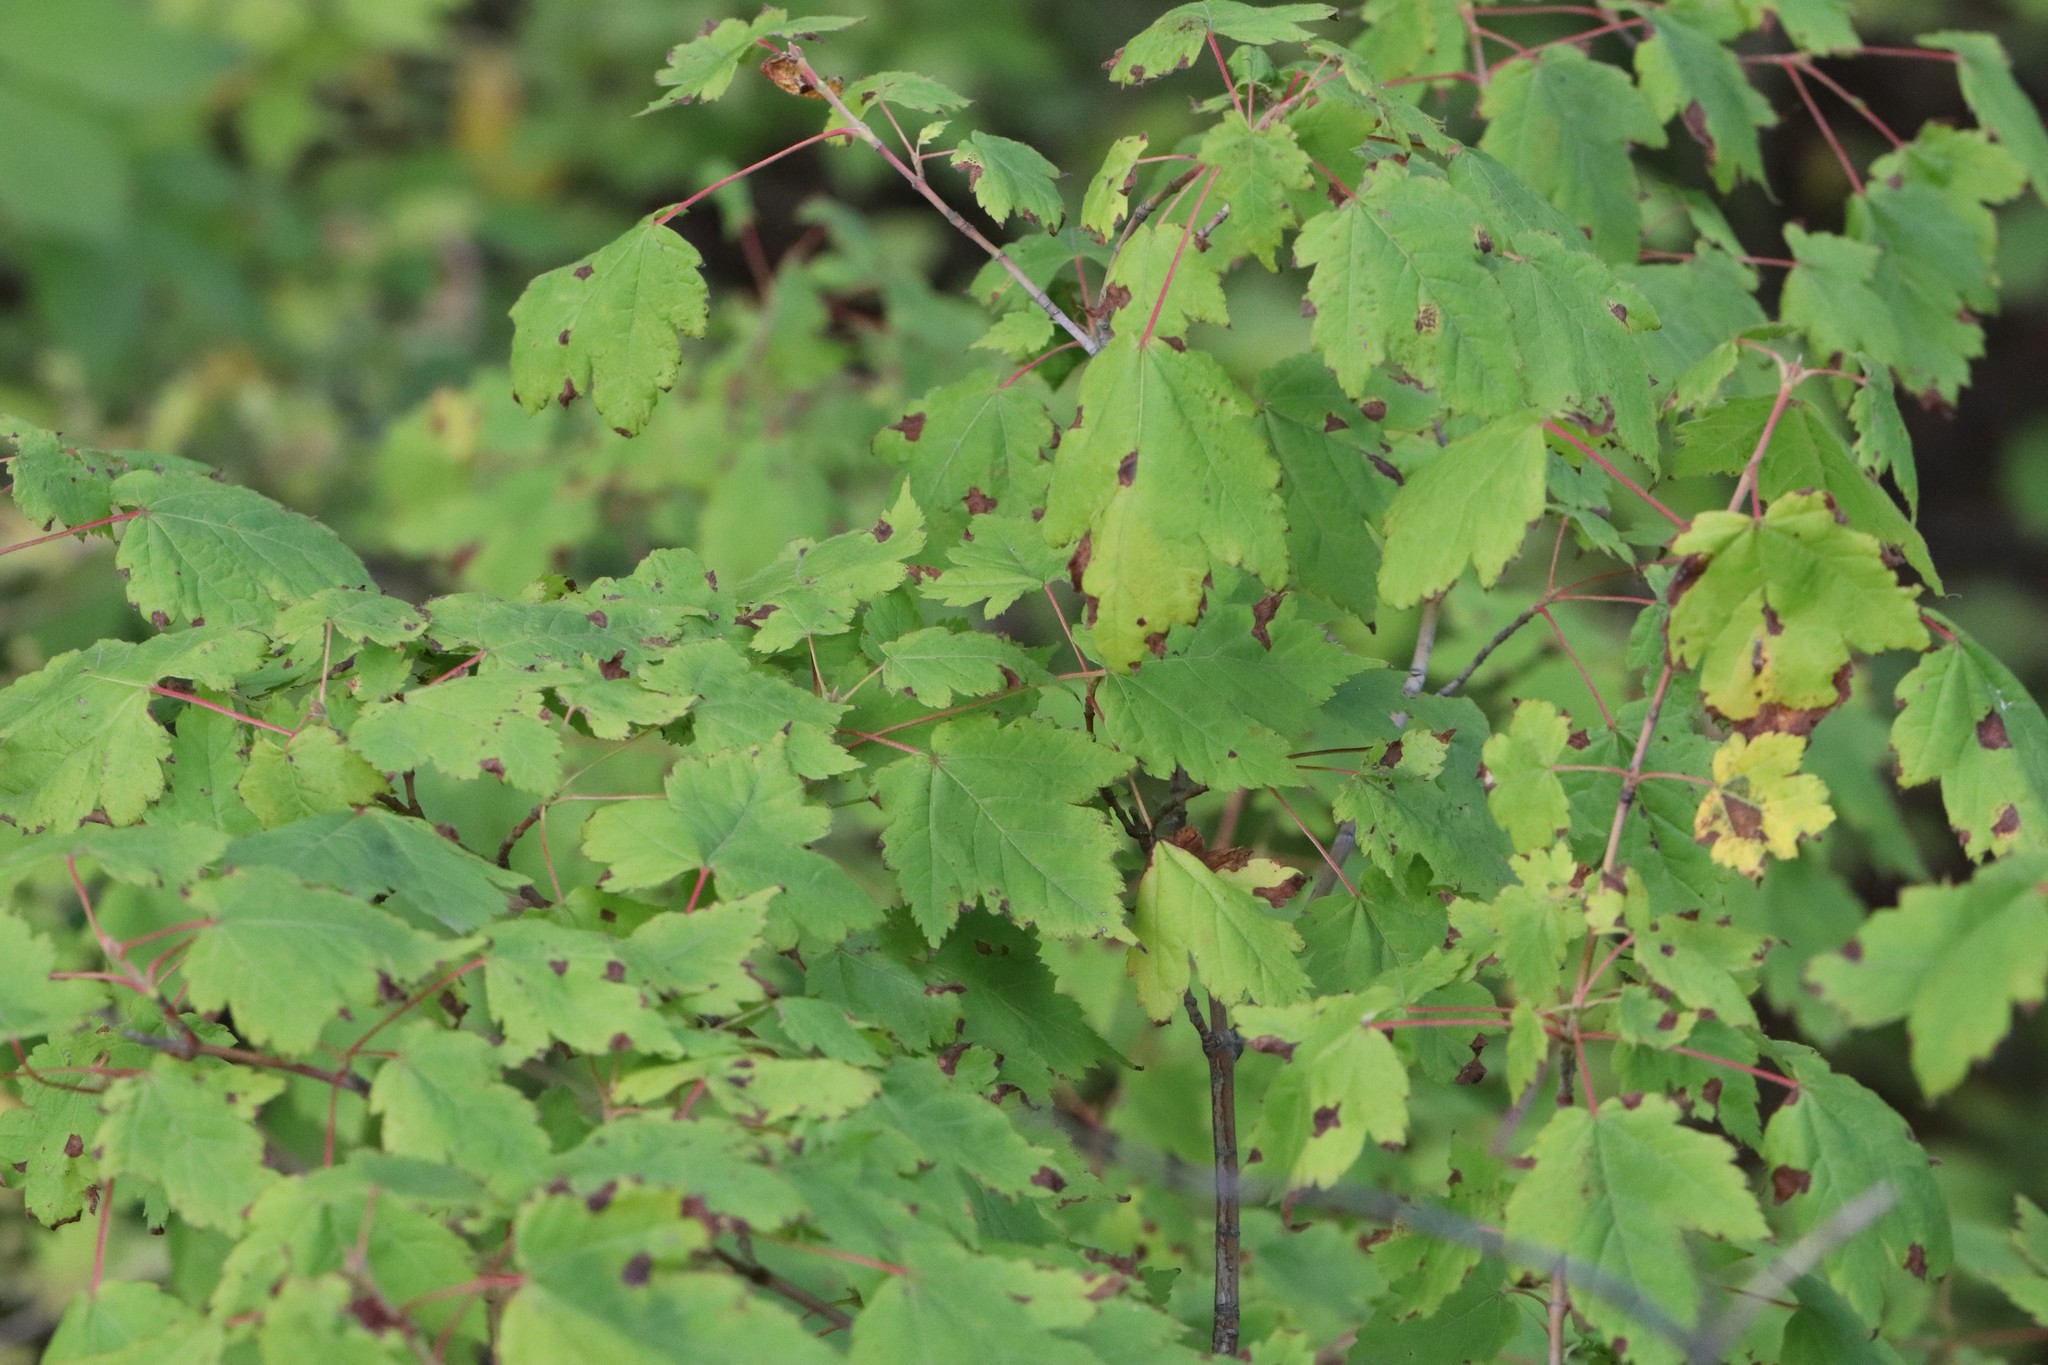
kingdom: Plantae
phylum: Tracheophyta
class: Magnoliopsida
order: Sapindales
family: Sapindaceae
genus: Acer
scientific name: Acer barbinerve
